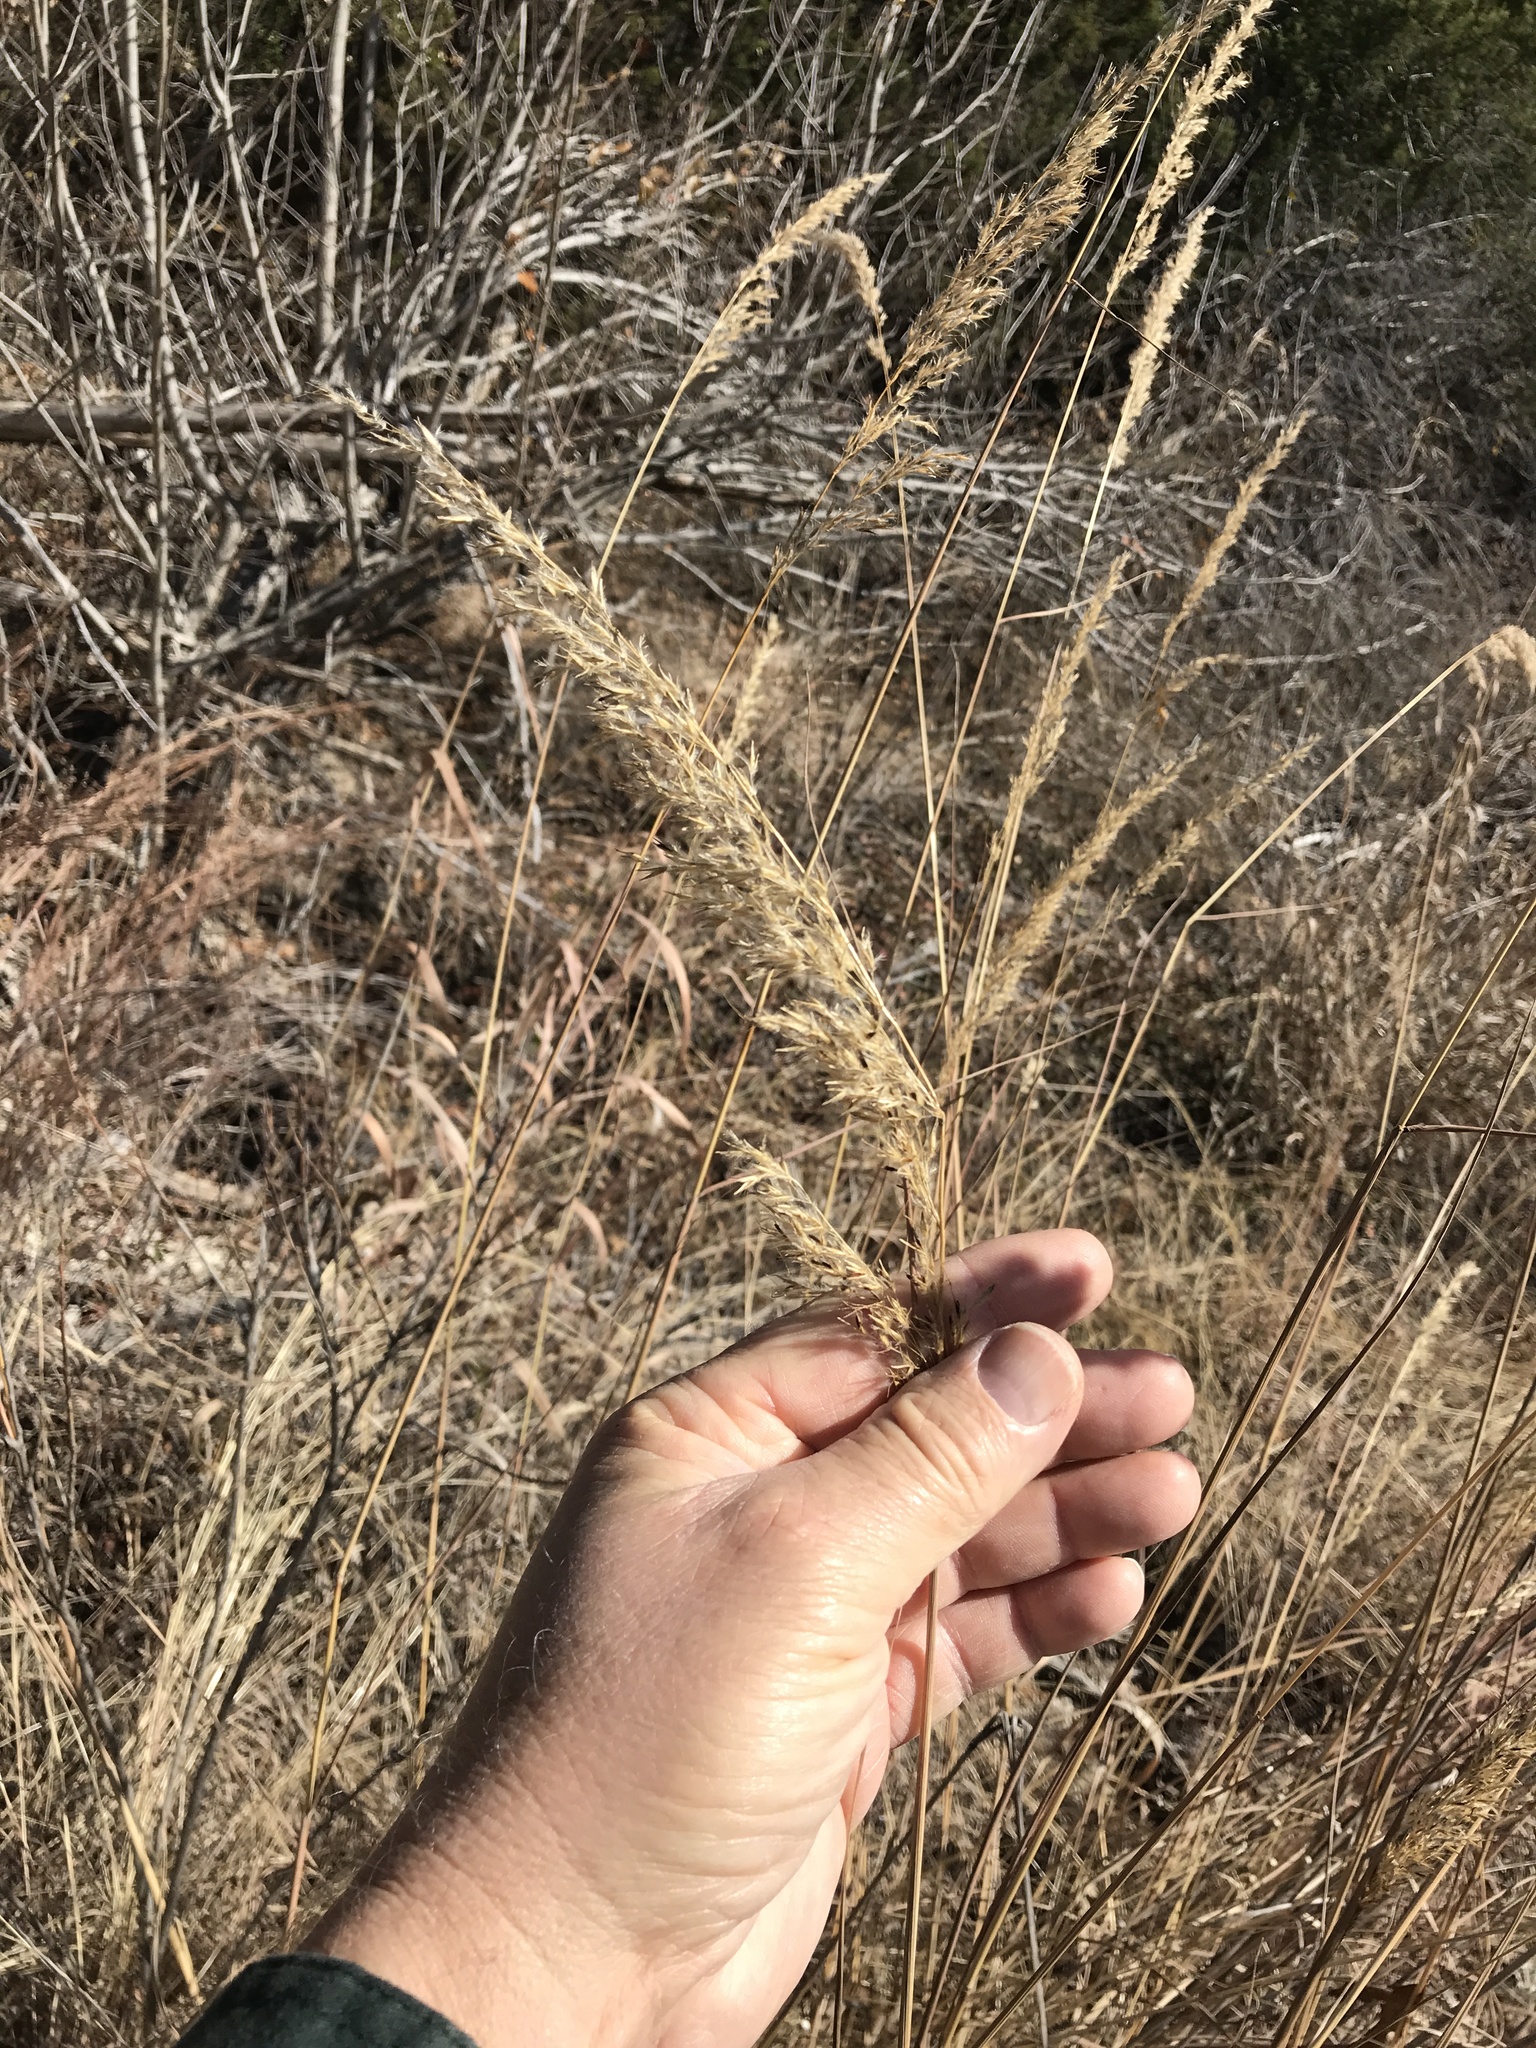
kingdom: Plantae
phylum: Tracheophyta
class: Liliopsida
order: Poales
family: Poaceae
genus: Sorghastrum
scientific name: Sorghastrum nutans
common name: Indian grass
